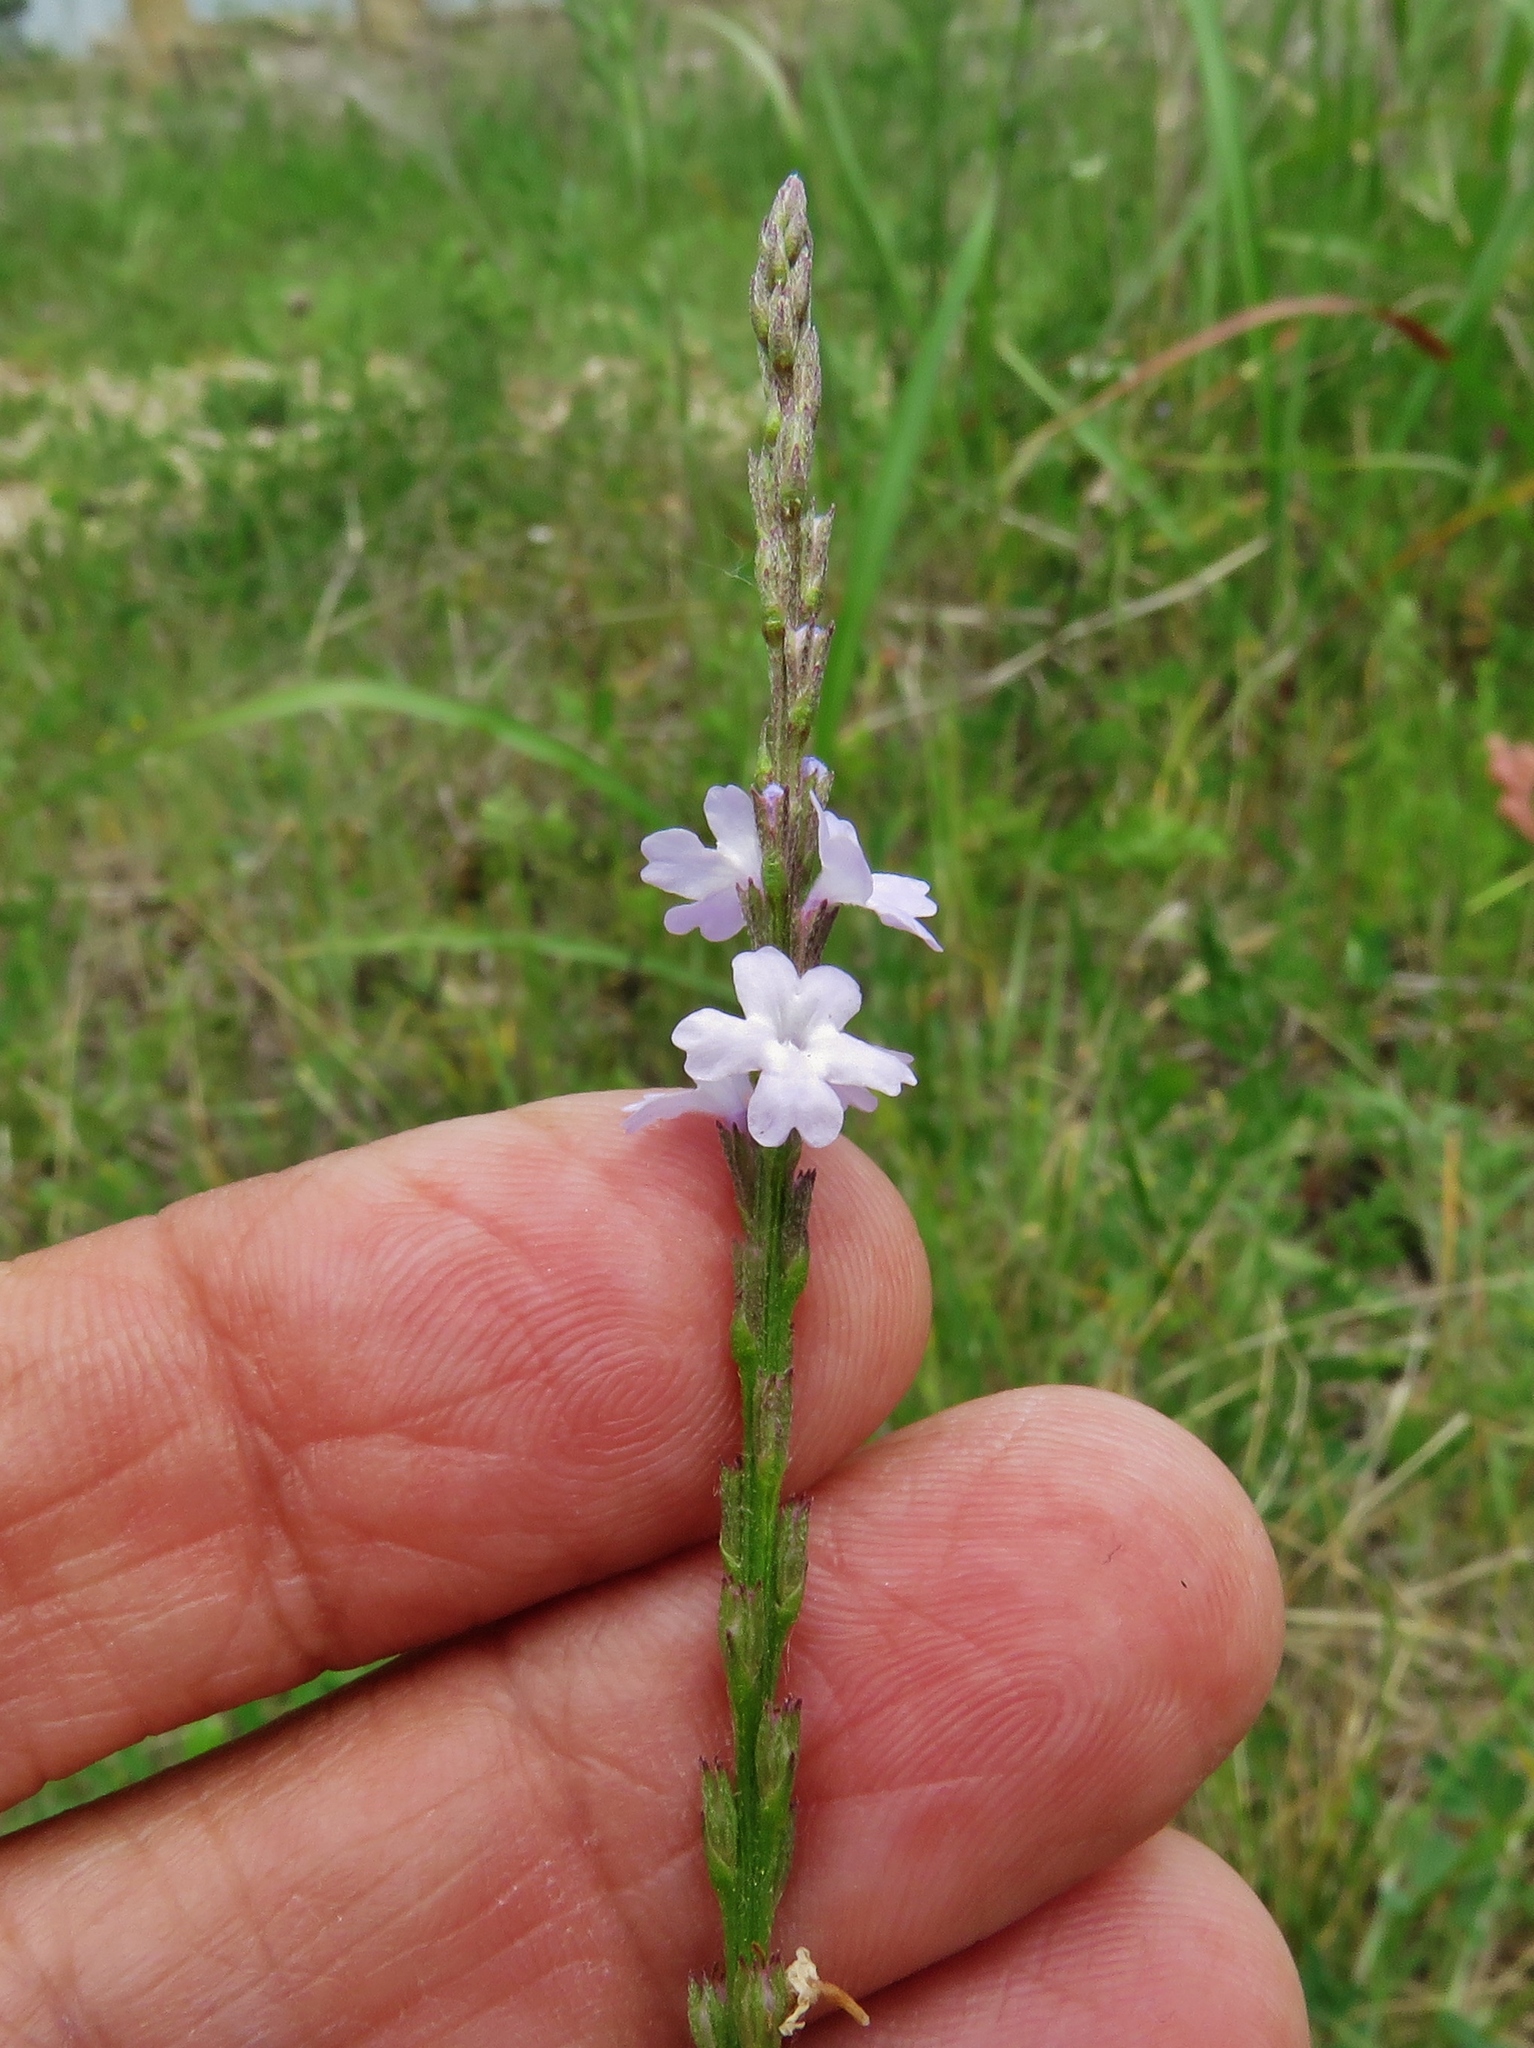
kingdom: Plantae
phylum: Tracheophyta
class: Magnoliopsida
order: Lamiales
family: Verbenaceae
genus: Verbena
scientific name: Verbena halei
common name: Texas vervain
